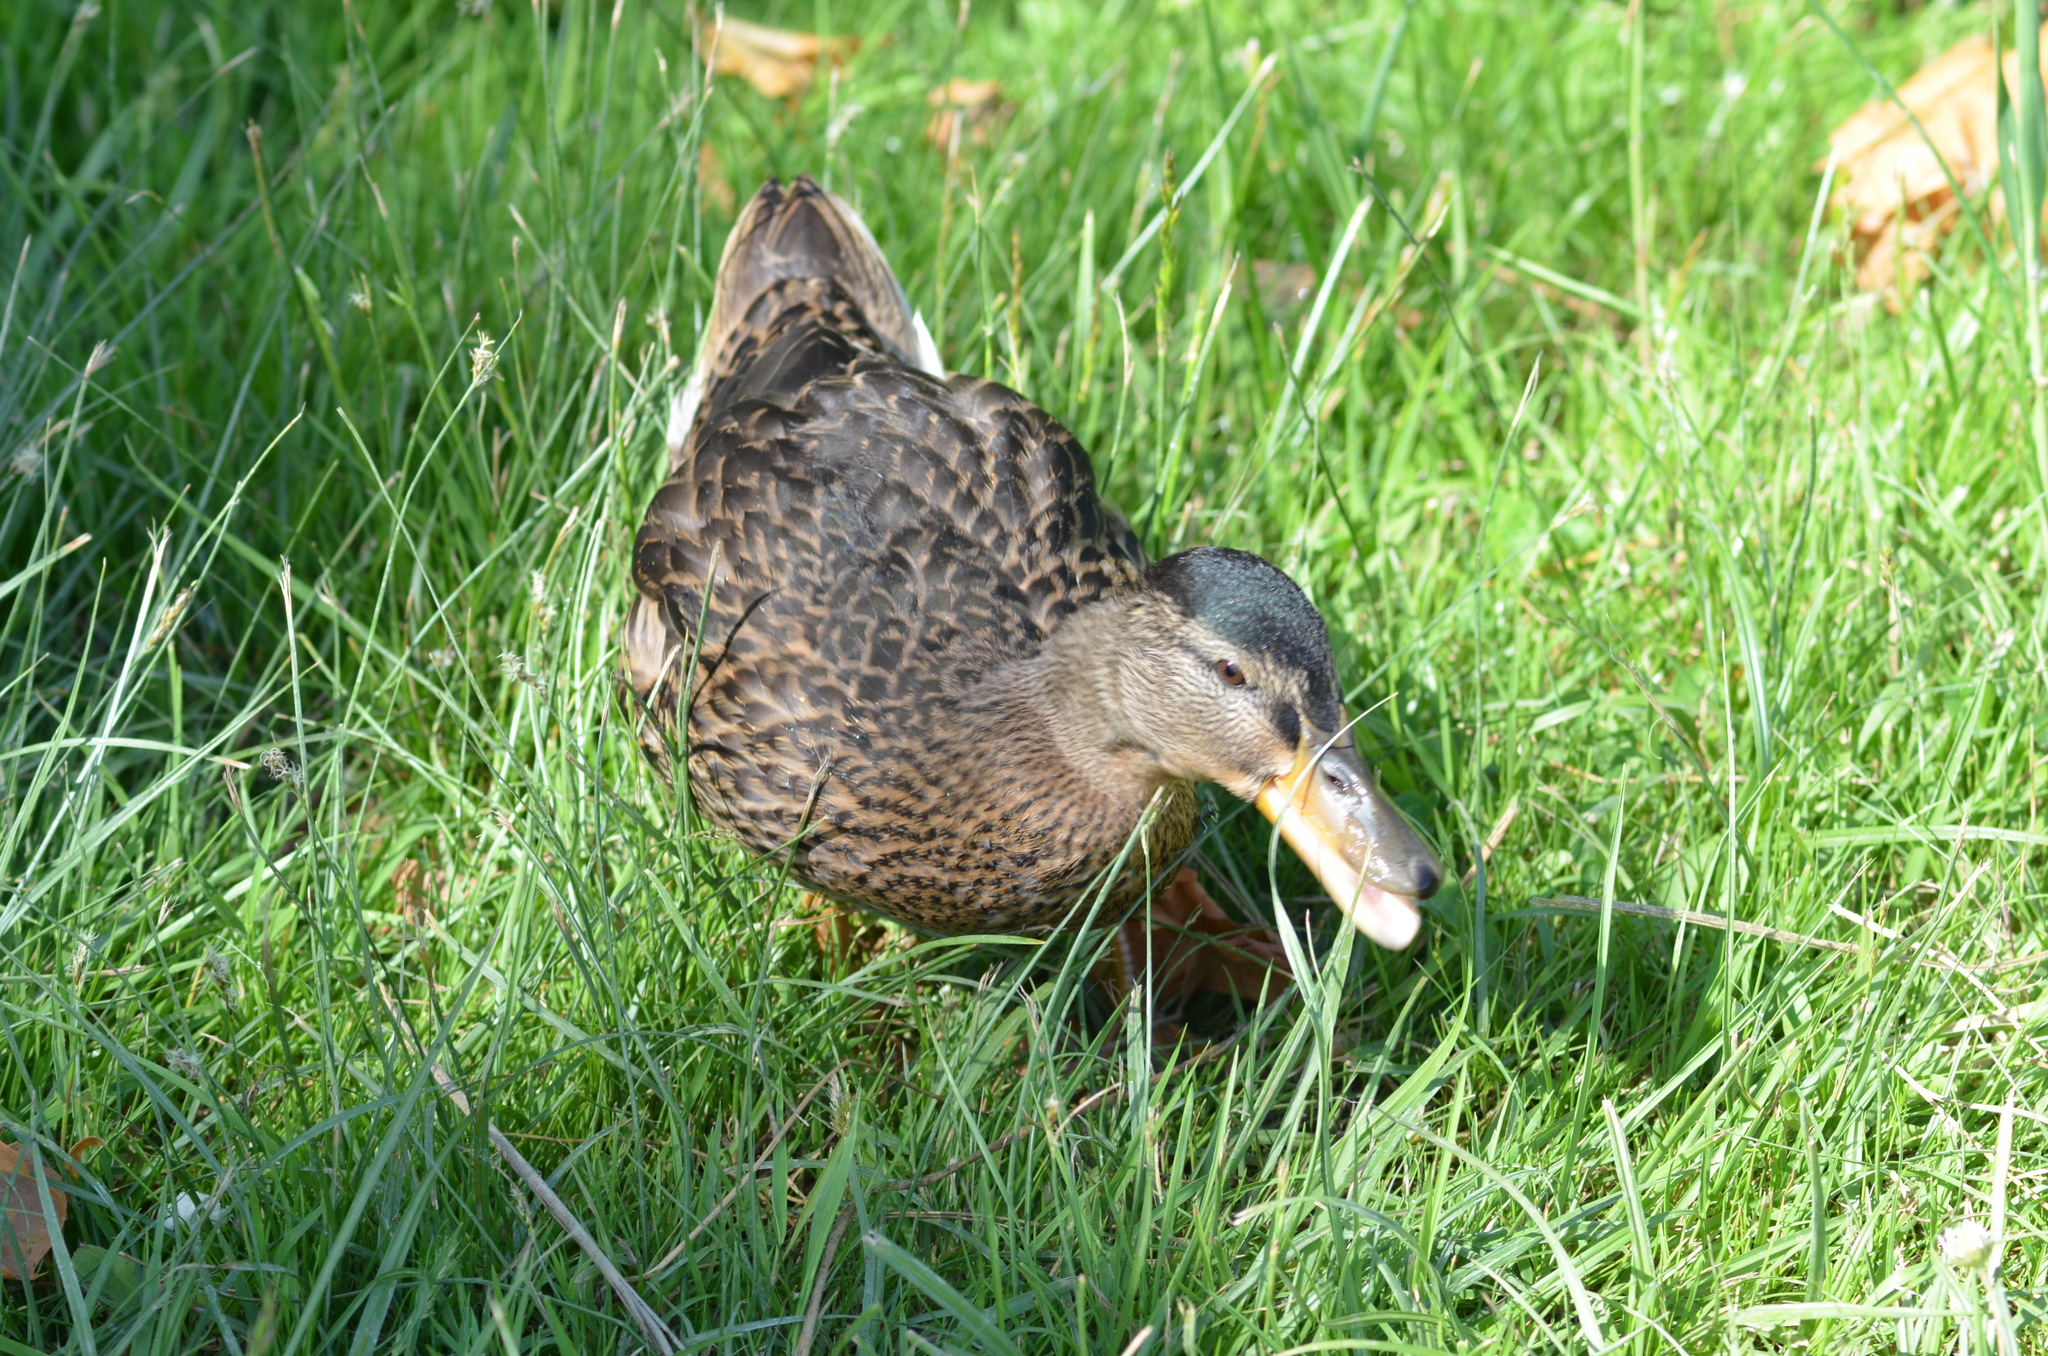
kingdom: Animalia
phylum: Chordata
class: Aves
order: Anseriformes
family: Anatidae
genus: Anas
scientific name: Anas platyrhynchos
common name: Mallard
